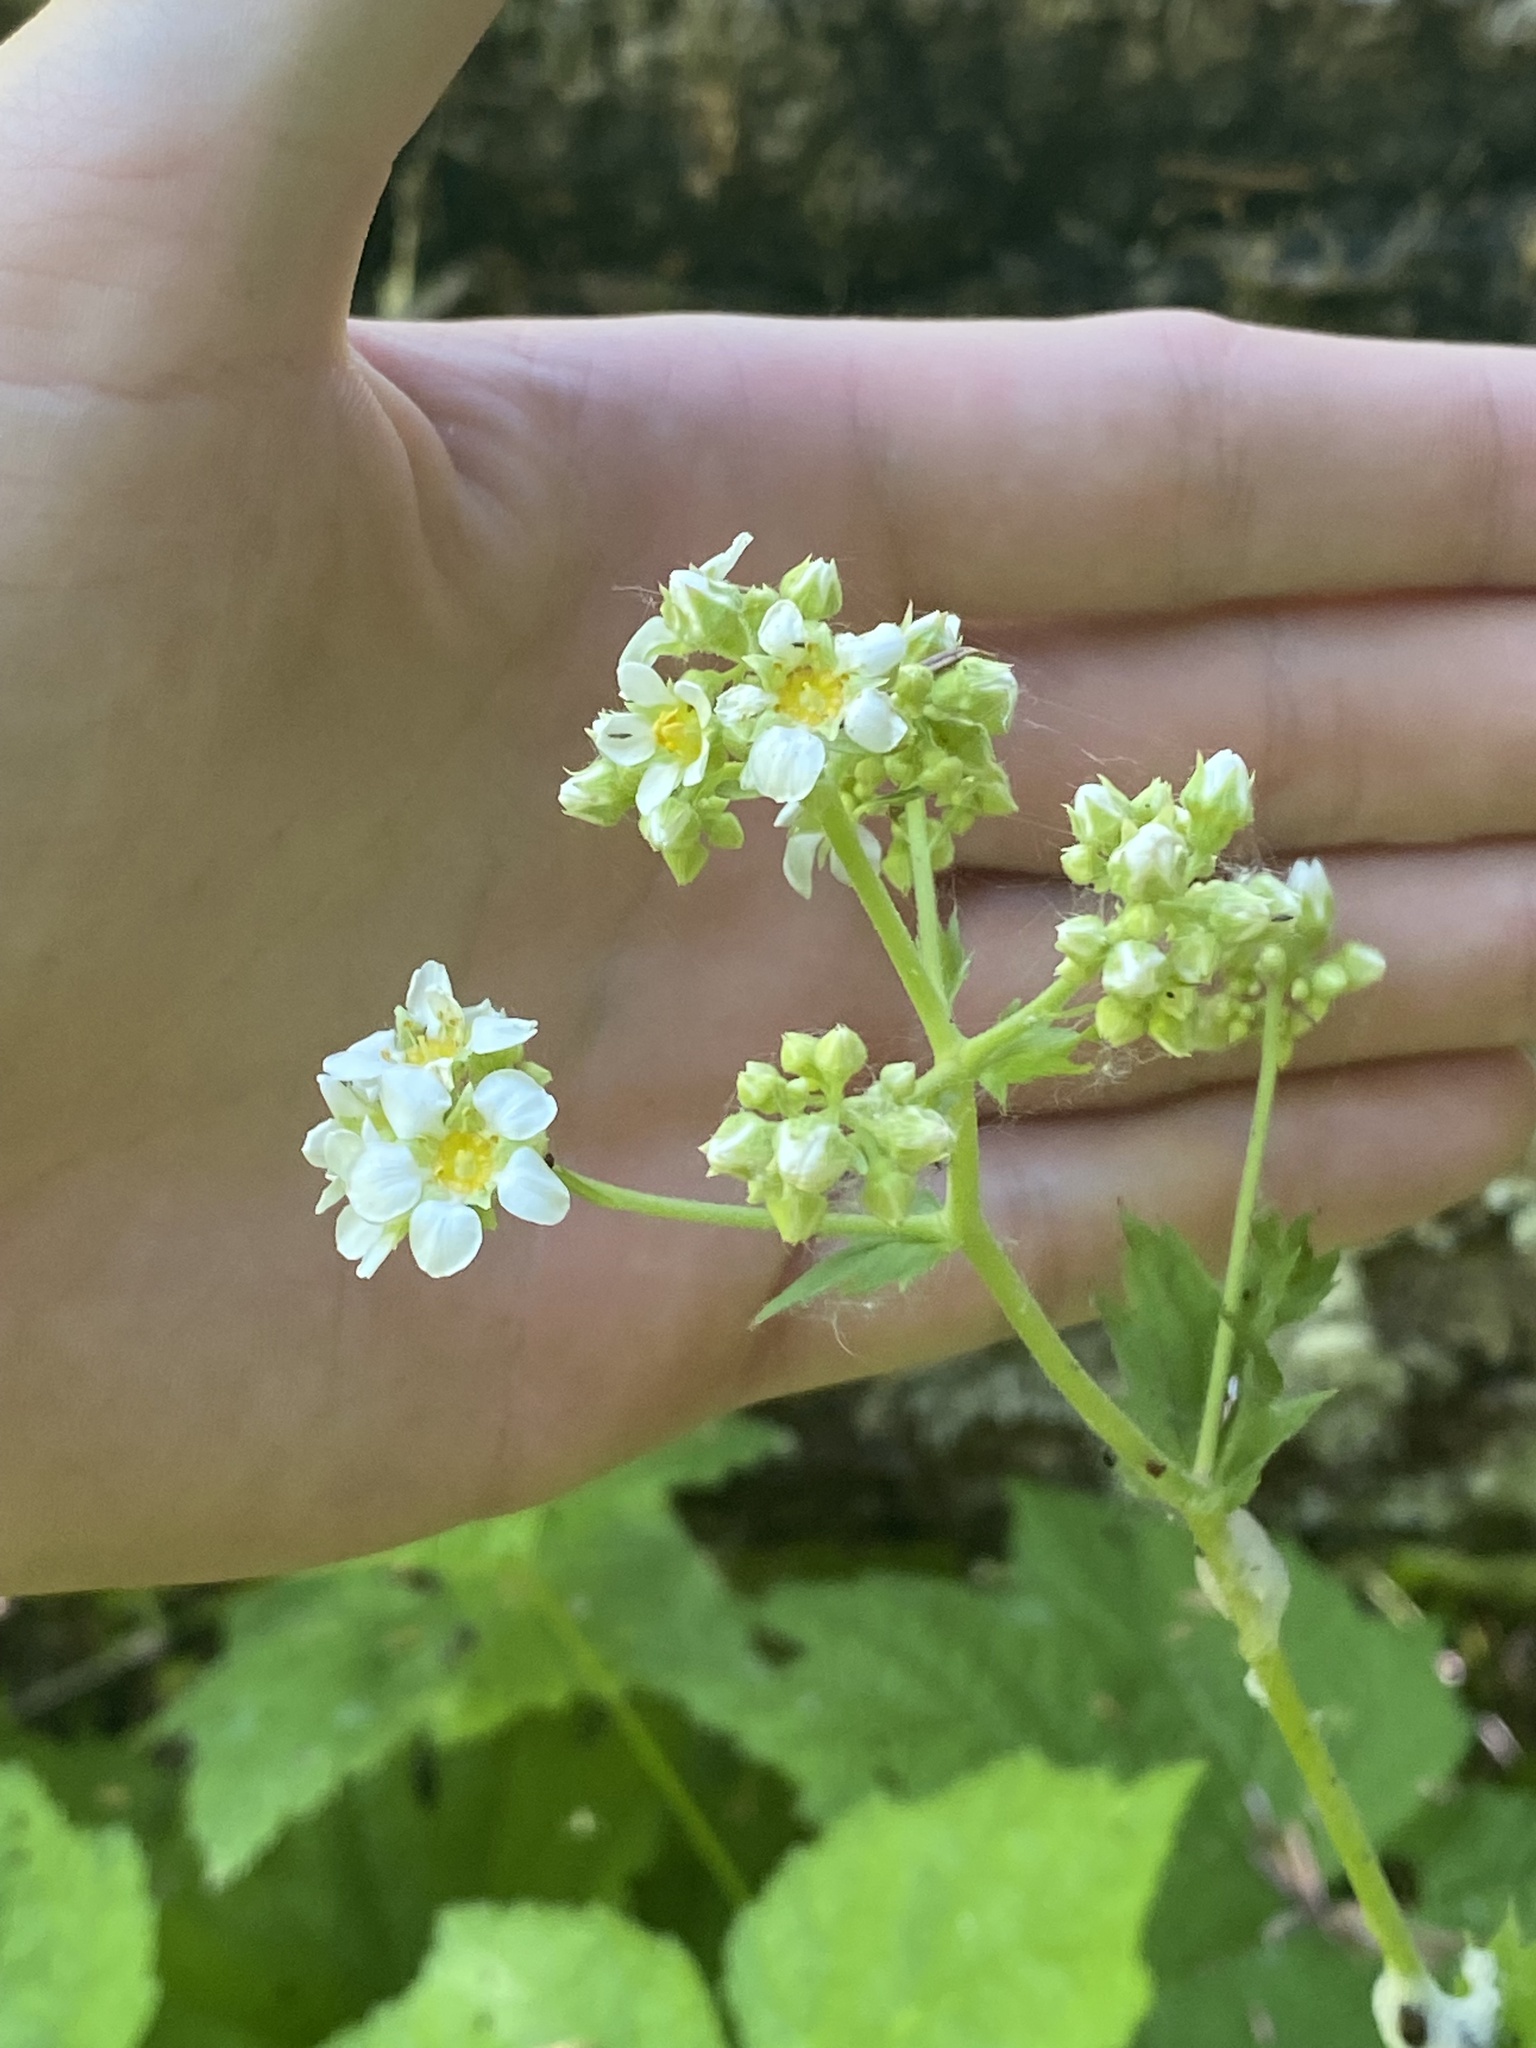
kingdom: Plantae
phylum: Tracheophyta
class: Magnoliopsida
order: Saxifragales
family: Saxifragaceae
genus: Boykinia
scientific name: Boykinia major
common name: Large boykinia
